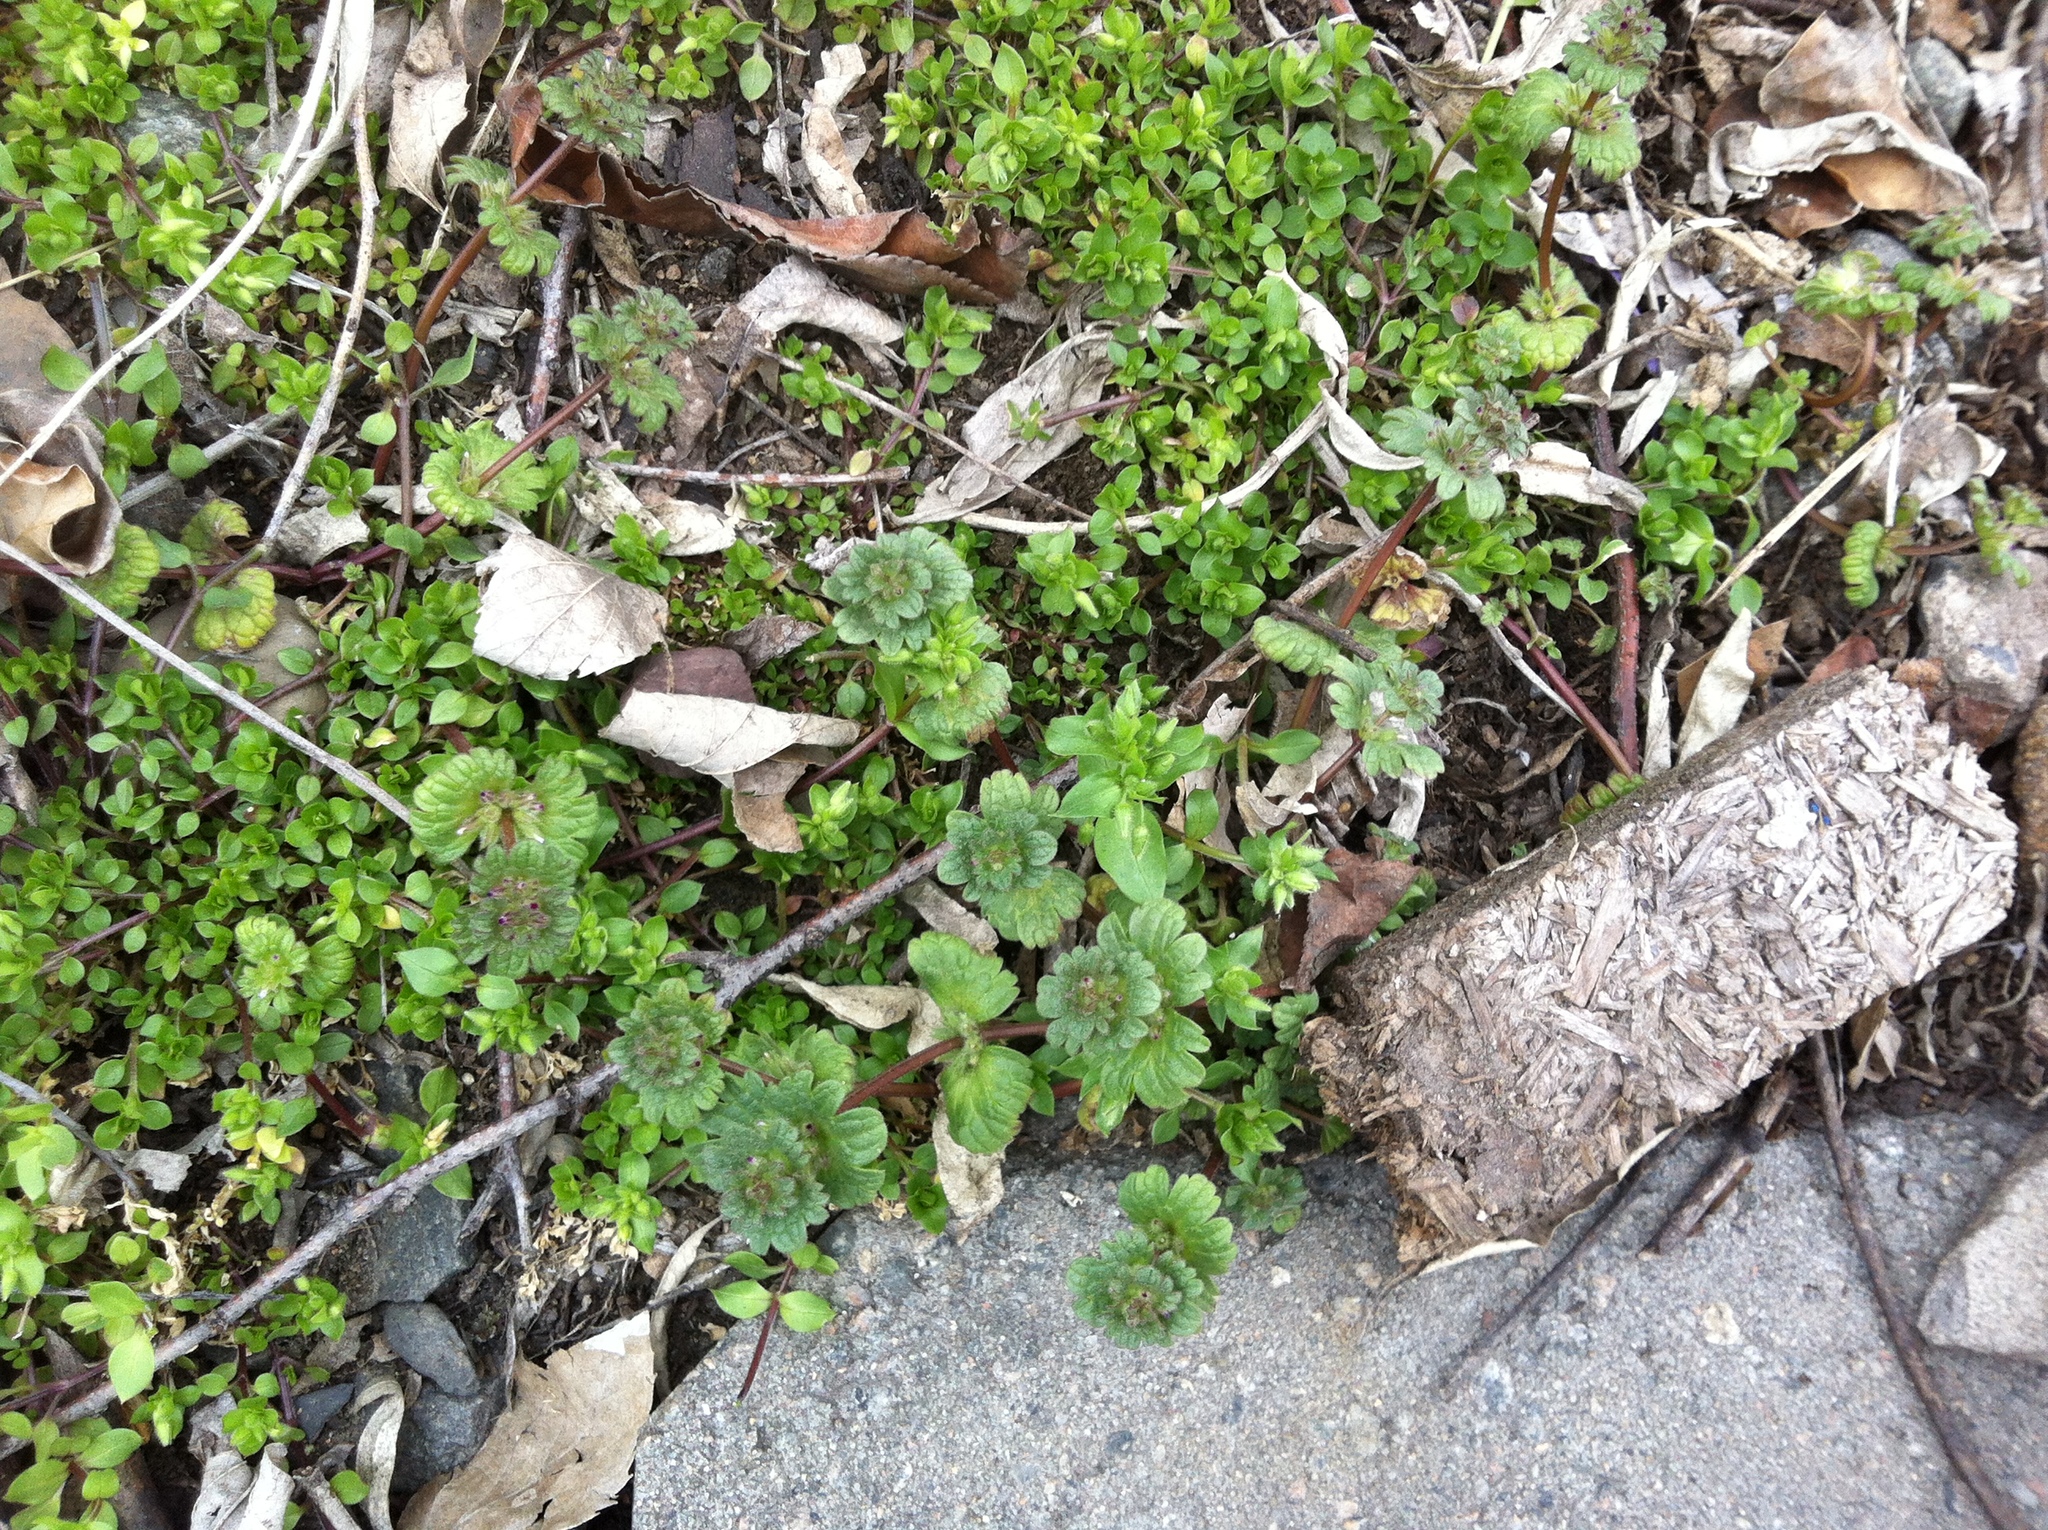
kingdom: Plantae
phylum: Tracheophyta
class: Magnoliopsida
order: Lamiales
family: Lamiaceae
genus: Lamium
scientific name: Lamium amplexicaule
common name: Henbit dead-nettle
